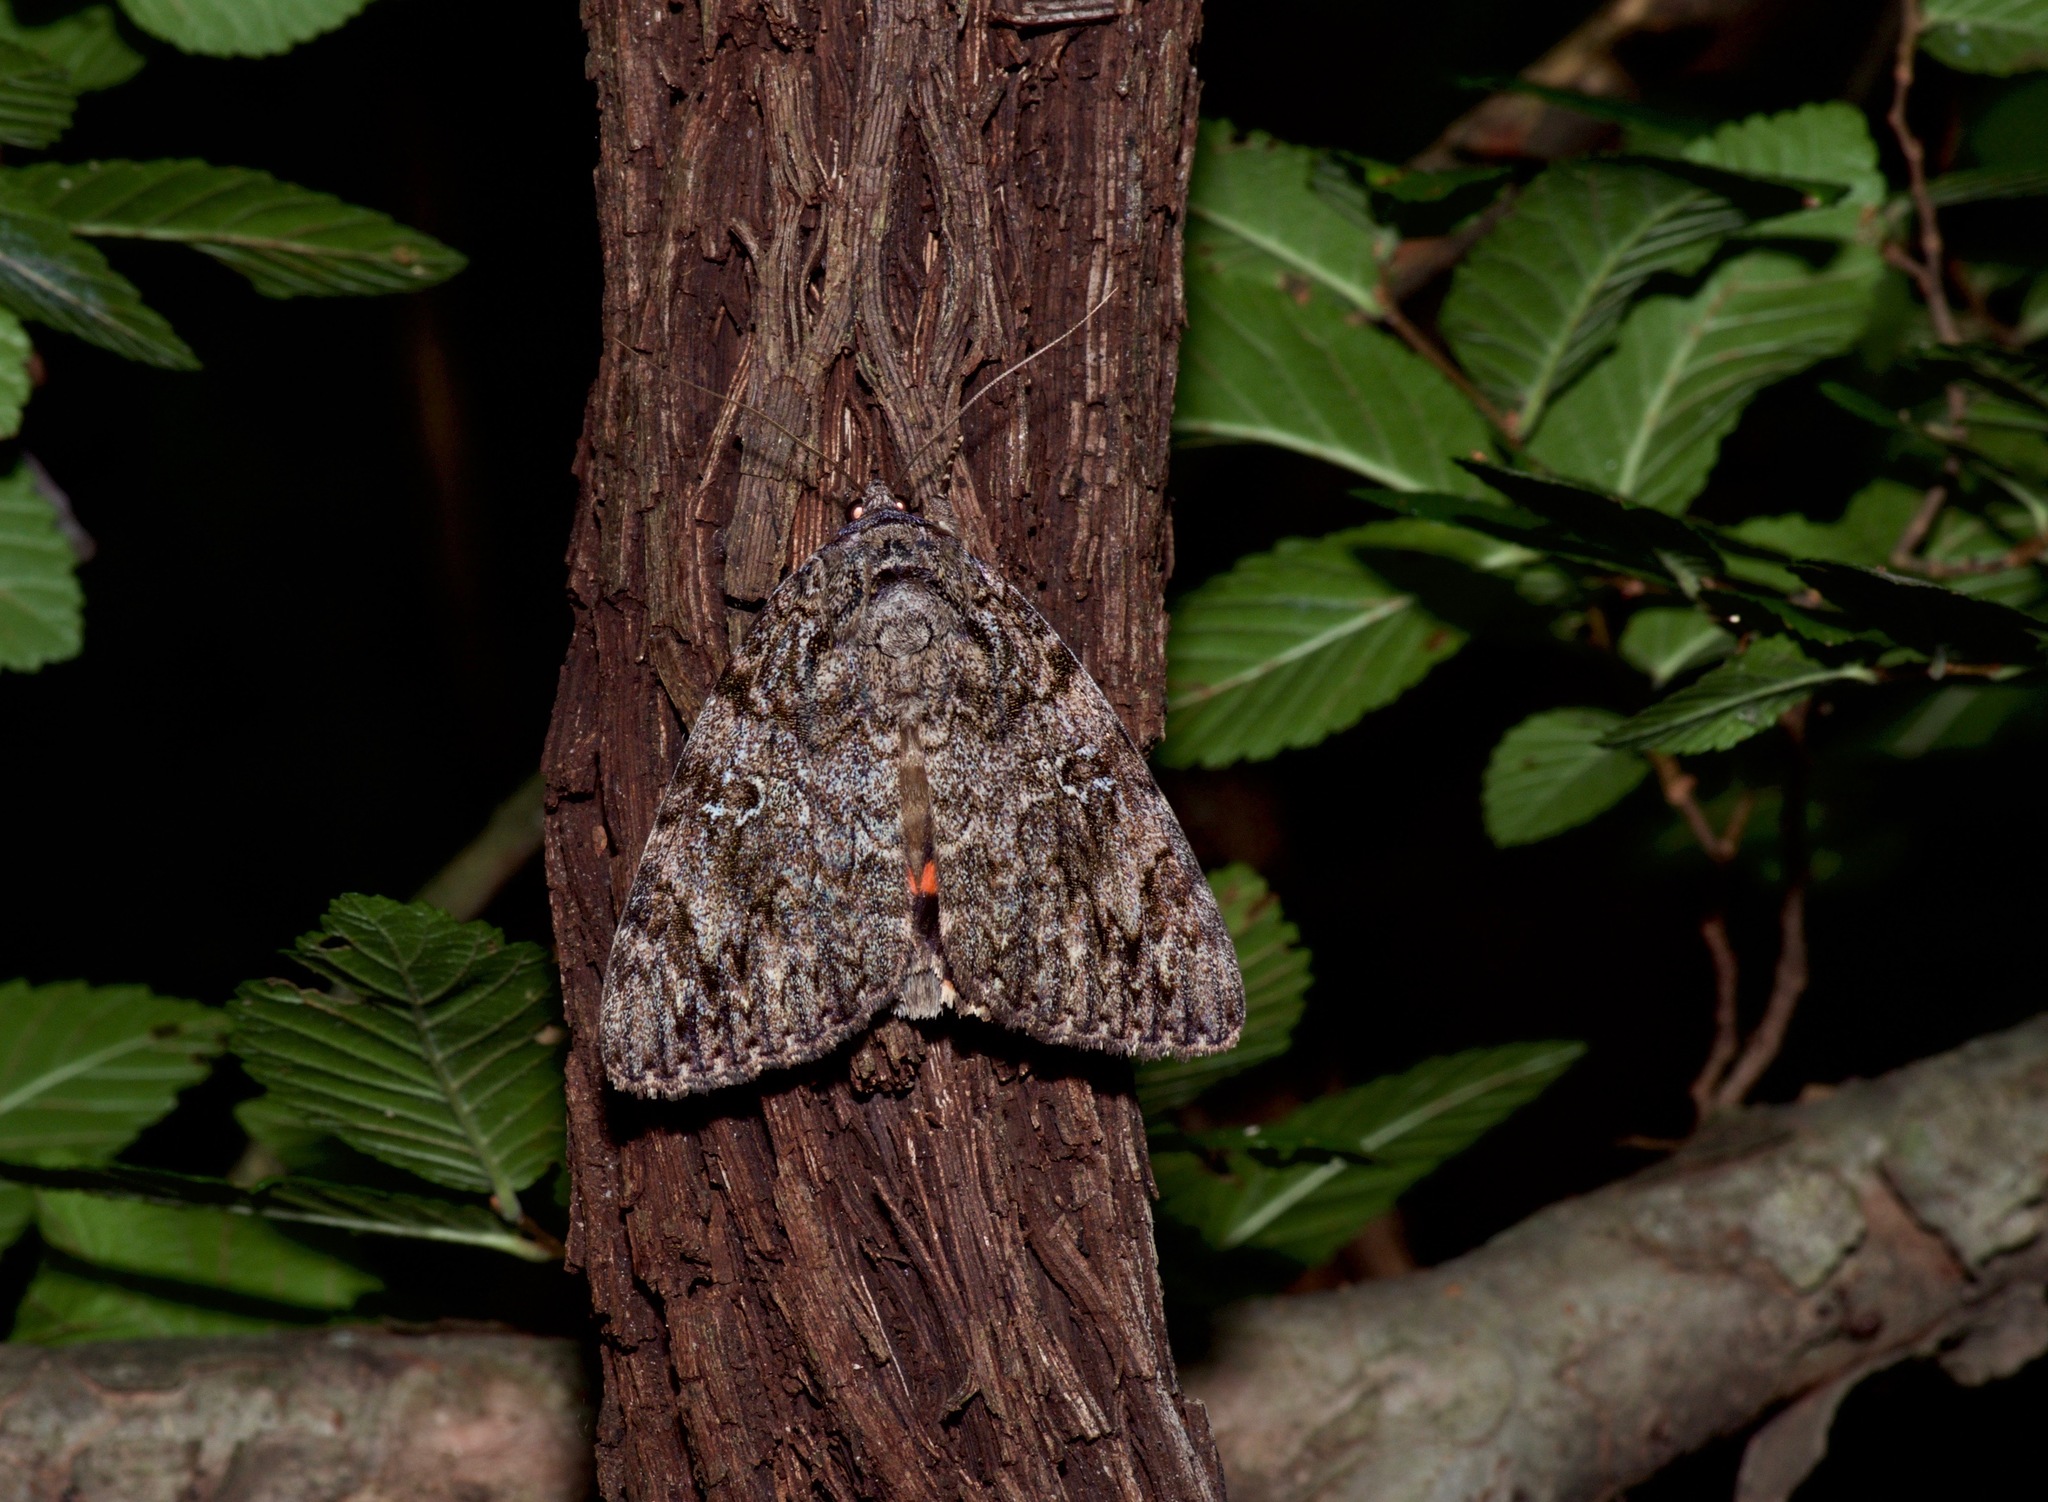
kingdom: Animalia
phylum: Arthropoda
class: Insecta
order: Lepidoptera
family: Erebidae
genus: Catocala
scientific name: Catocala ilia
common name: Ilia underwing
